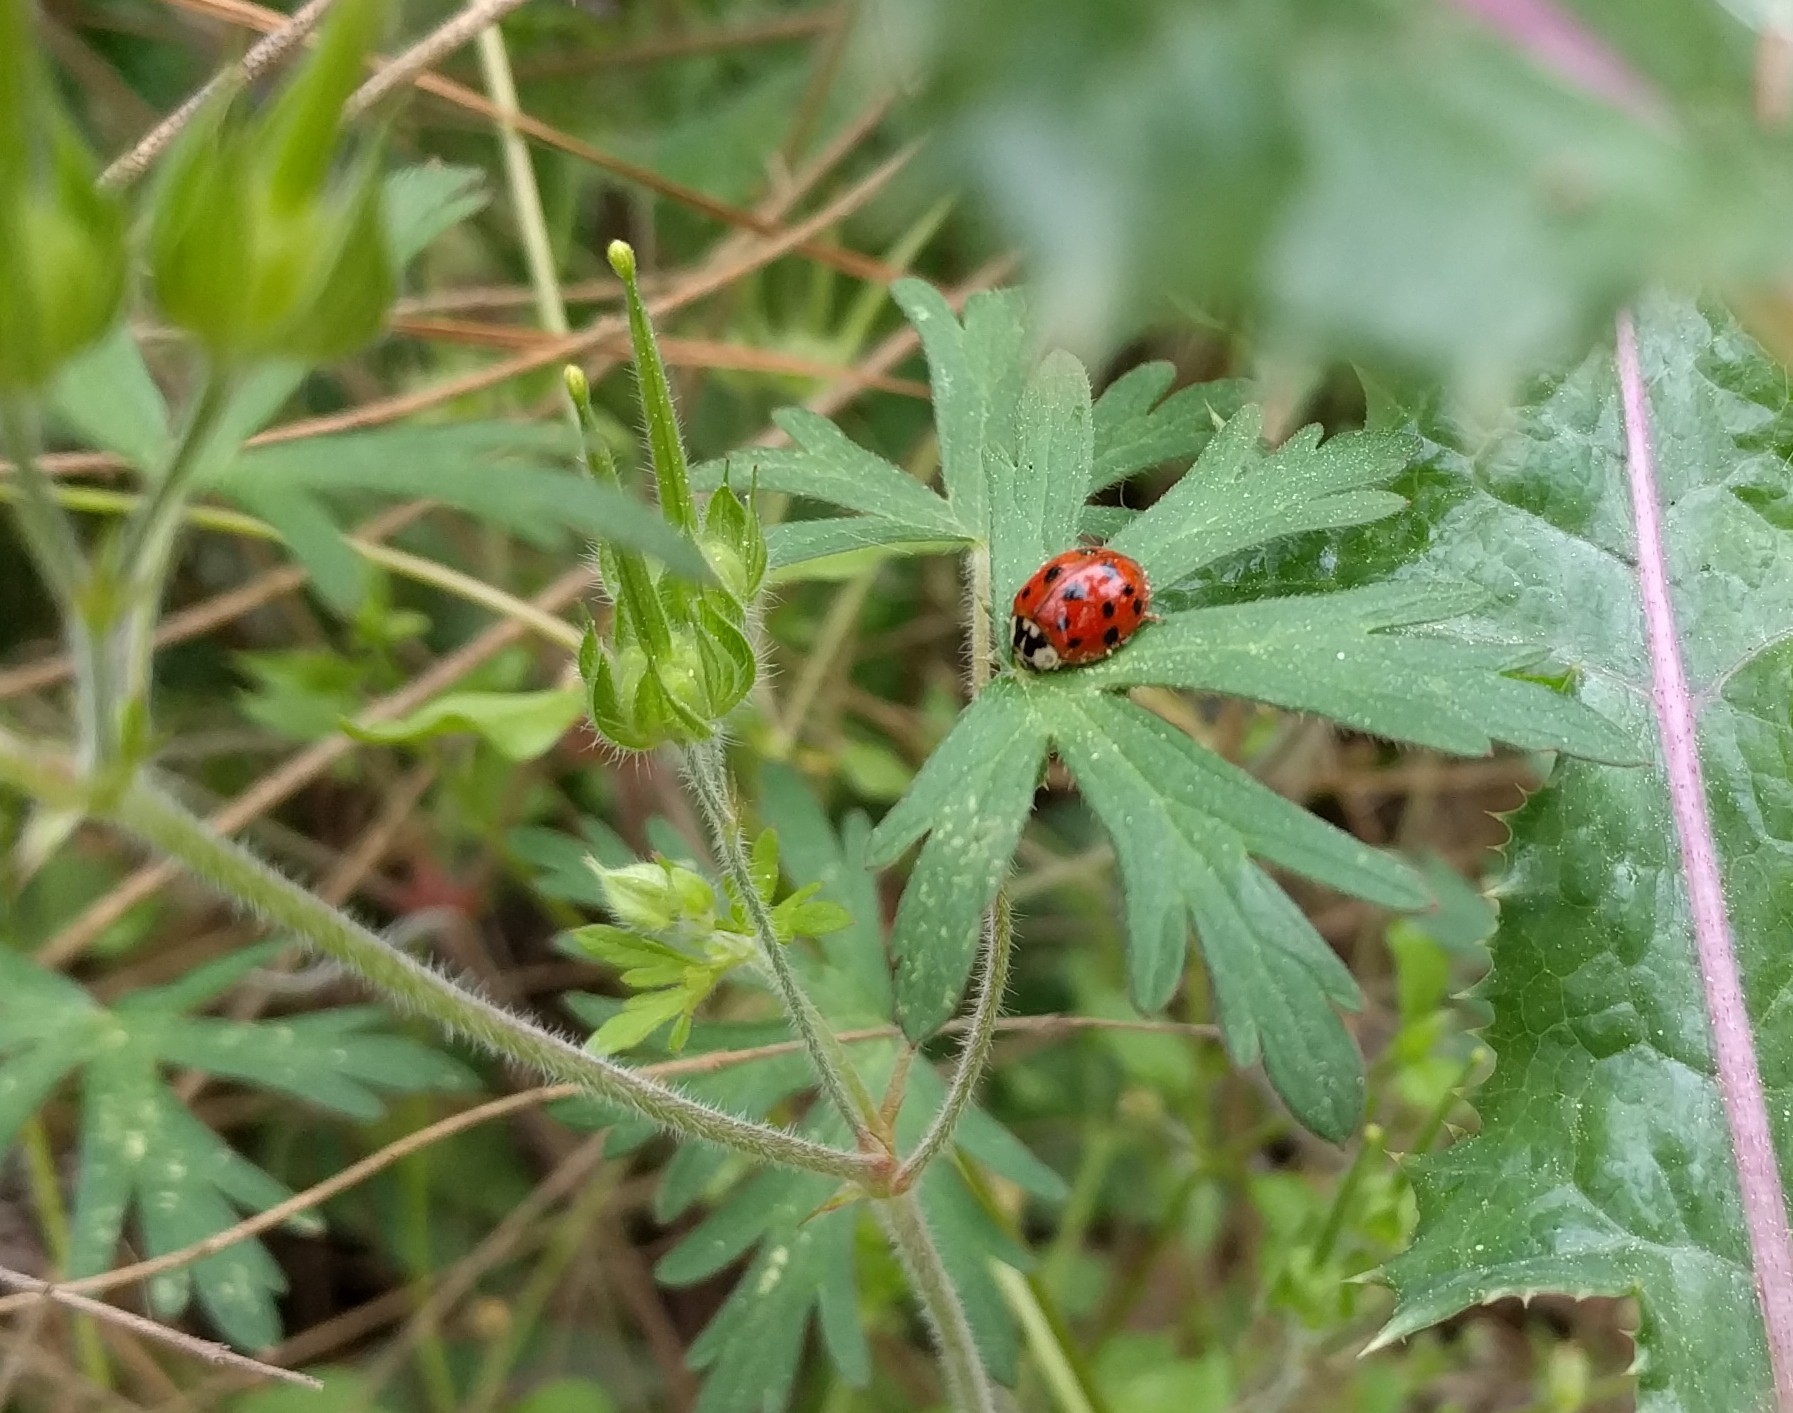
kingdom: Animalia
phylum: Arthropoda
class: Insecta
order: Coleoptera
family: Coccinellidae
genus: Harmonia
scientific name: Harmonia axyridis
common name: Harlequin ladybird
